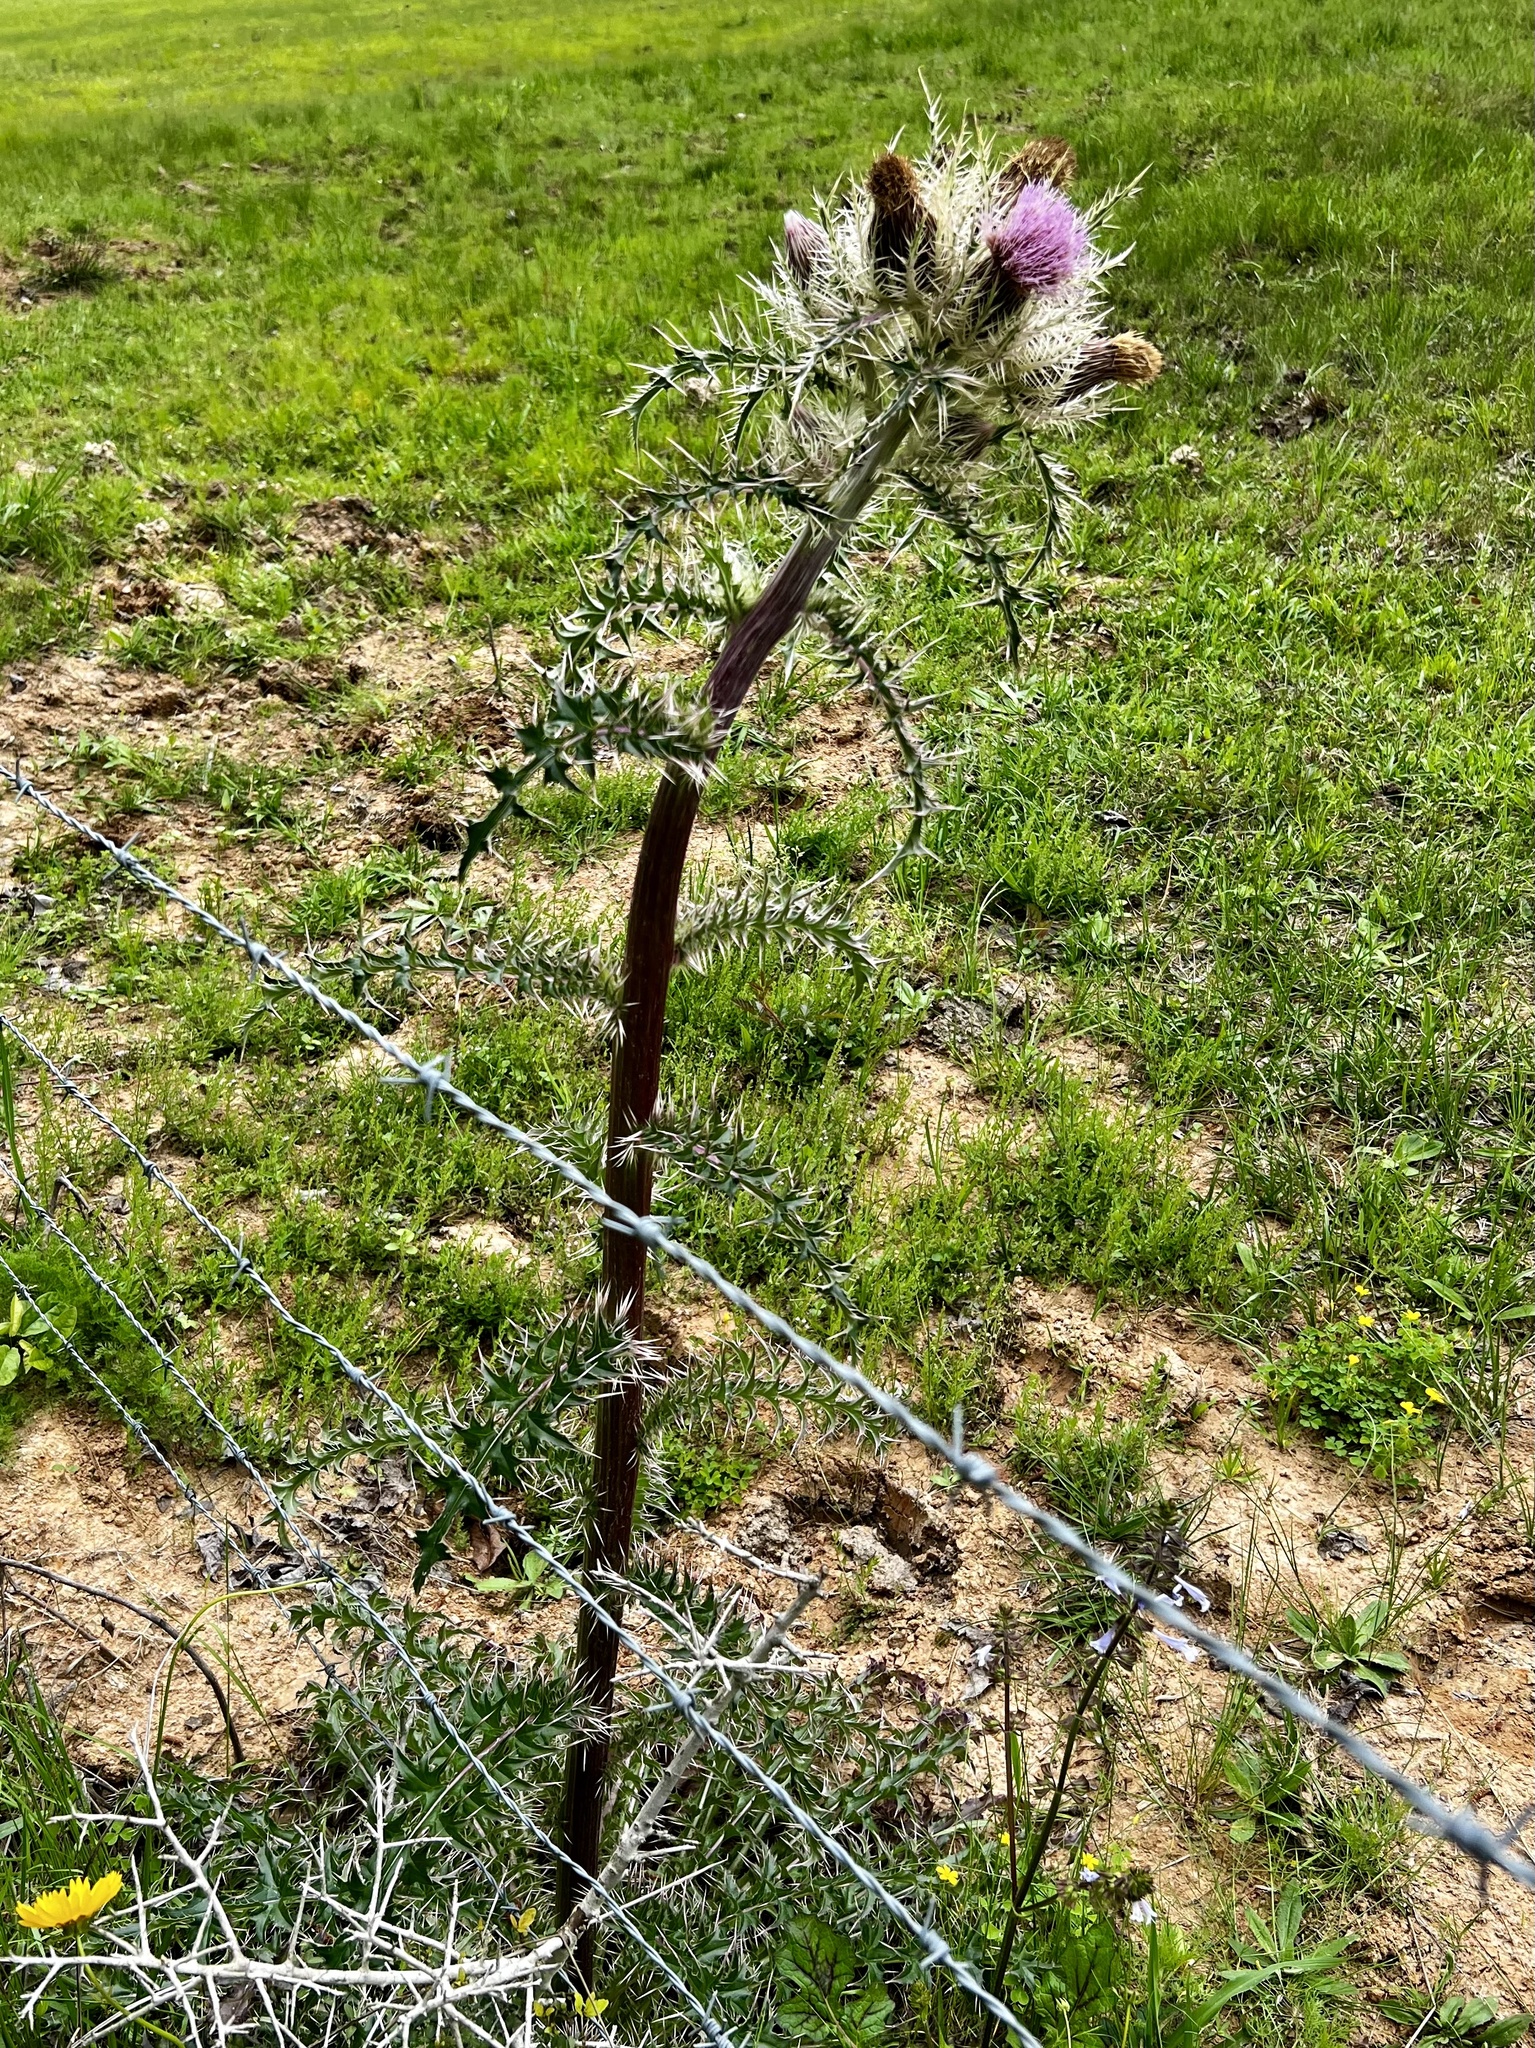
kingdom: Plantae
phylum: Tracheophyta
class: Magnoliopsida
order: Asterales
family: Asteraceae
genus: Cirsium
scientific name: Cirsium horridulum
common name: Bristly thistle
